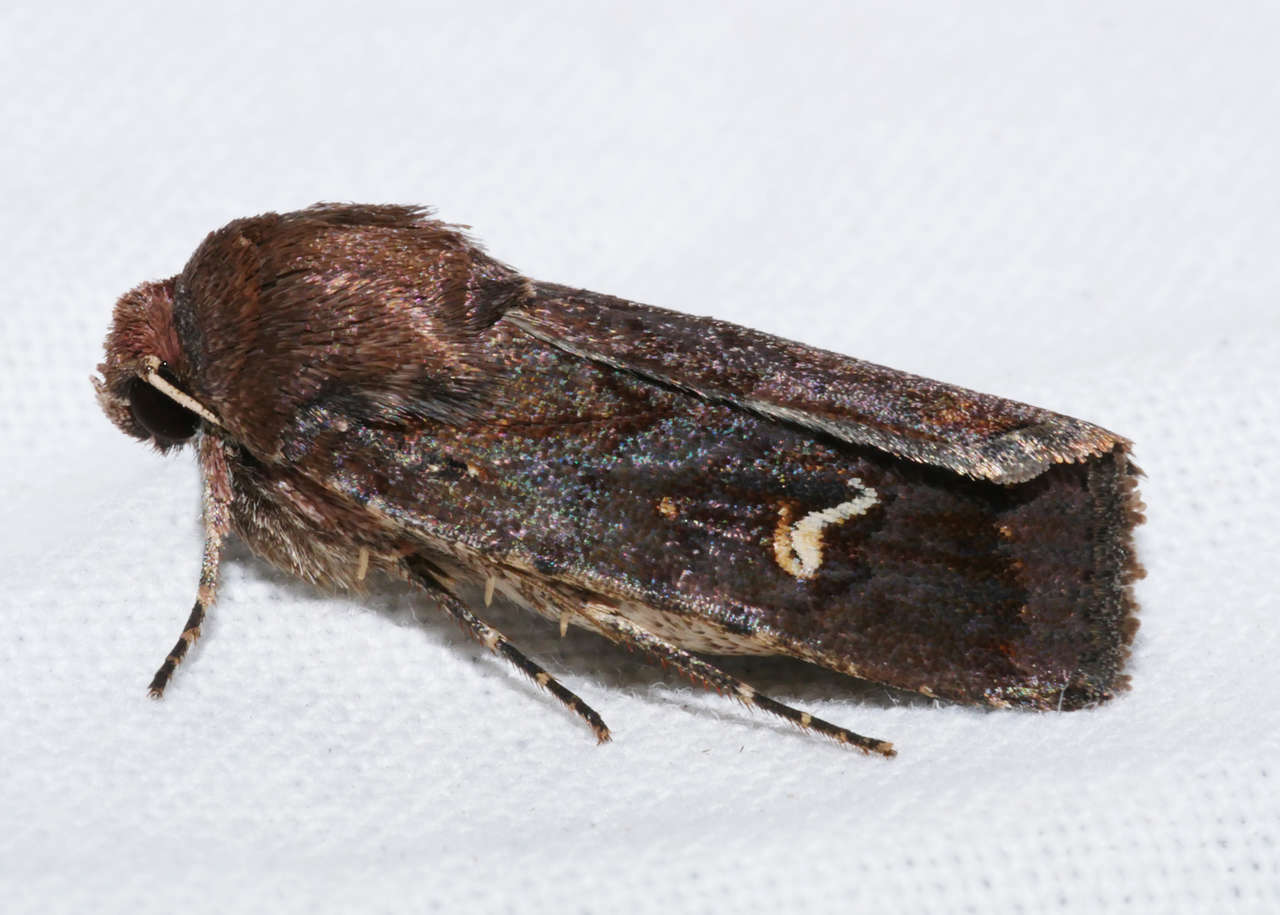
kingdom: Animalia
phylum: Arthropoda
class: Insecta
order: Lepidoptera
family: Noctuidae
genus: Proteuxoa
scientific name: Proteuxoa bistrigula
